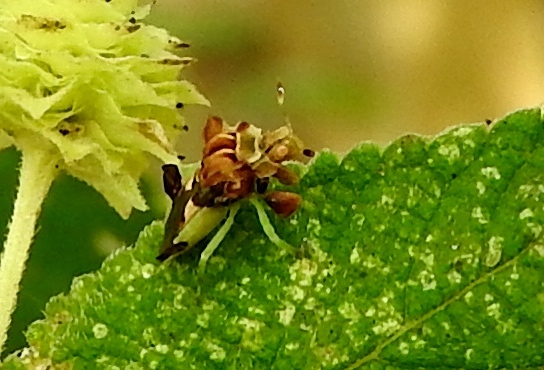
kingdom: Animalia
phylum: Arthropoda
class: Insecta
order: Hemiptera
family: Reduviidae
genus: Phymata
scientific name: Phymata
